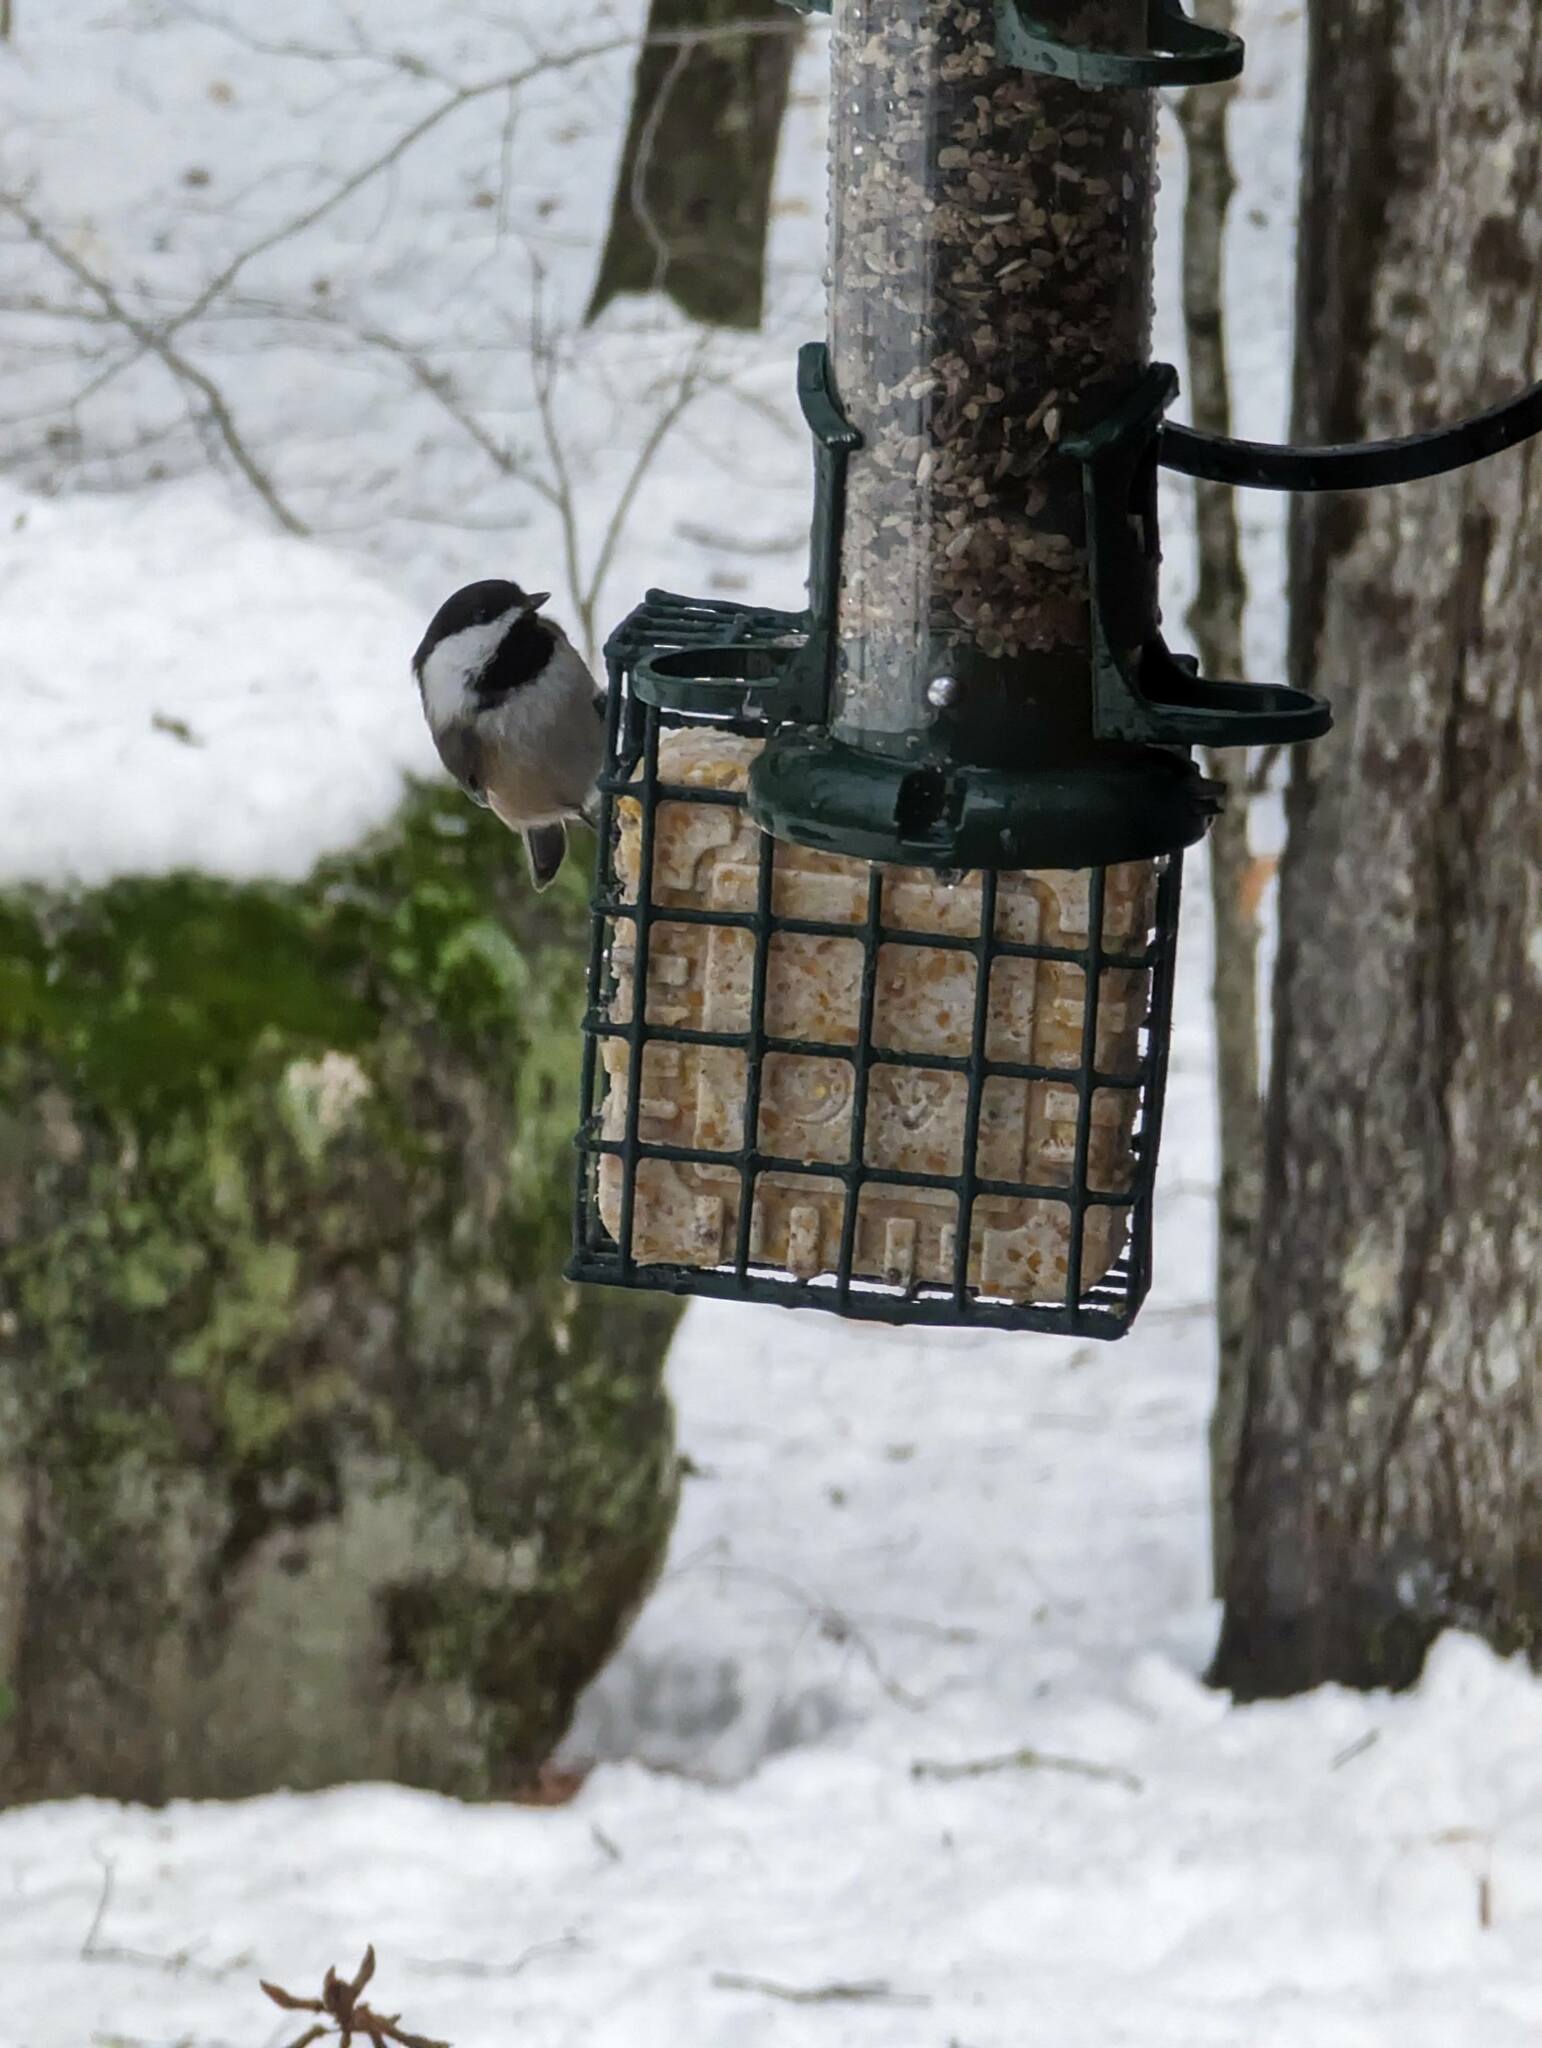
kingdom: Animalia
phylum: Chordata
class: Aves
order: Passeriformes
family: Paridae
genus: Poecile
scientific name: Poecile atricapillus
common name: Black-capped chickadee
